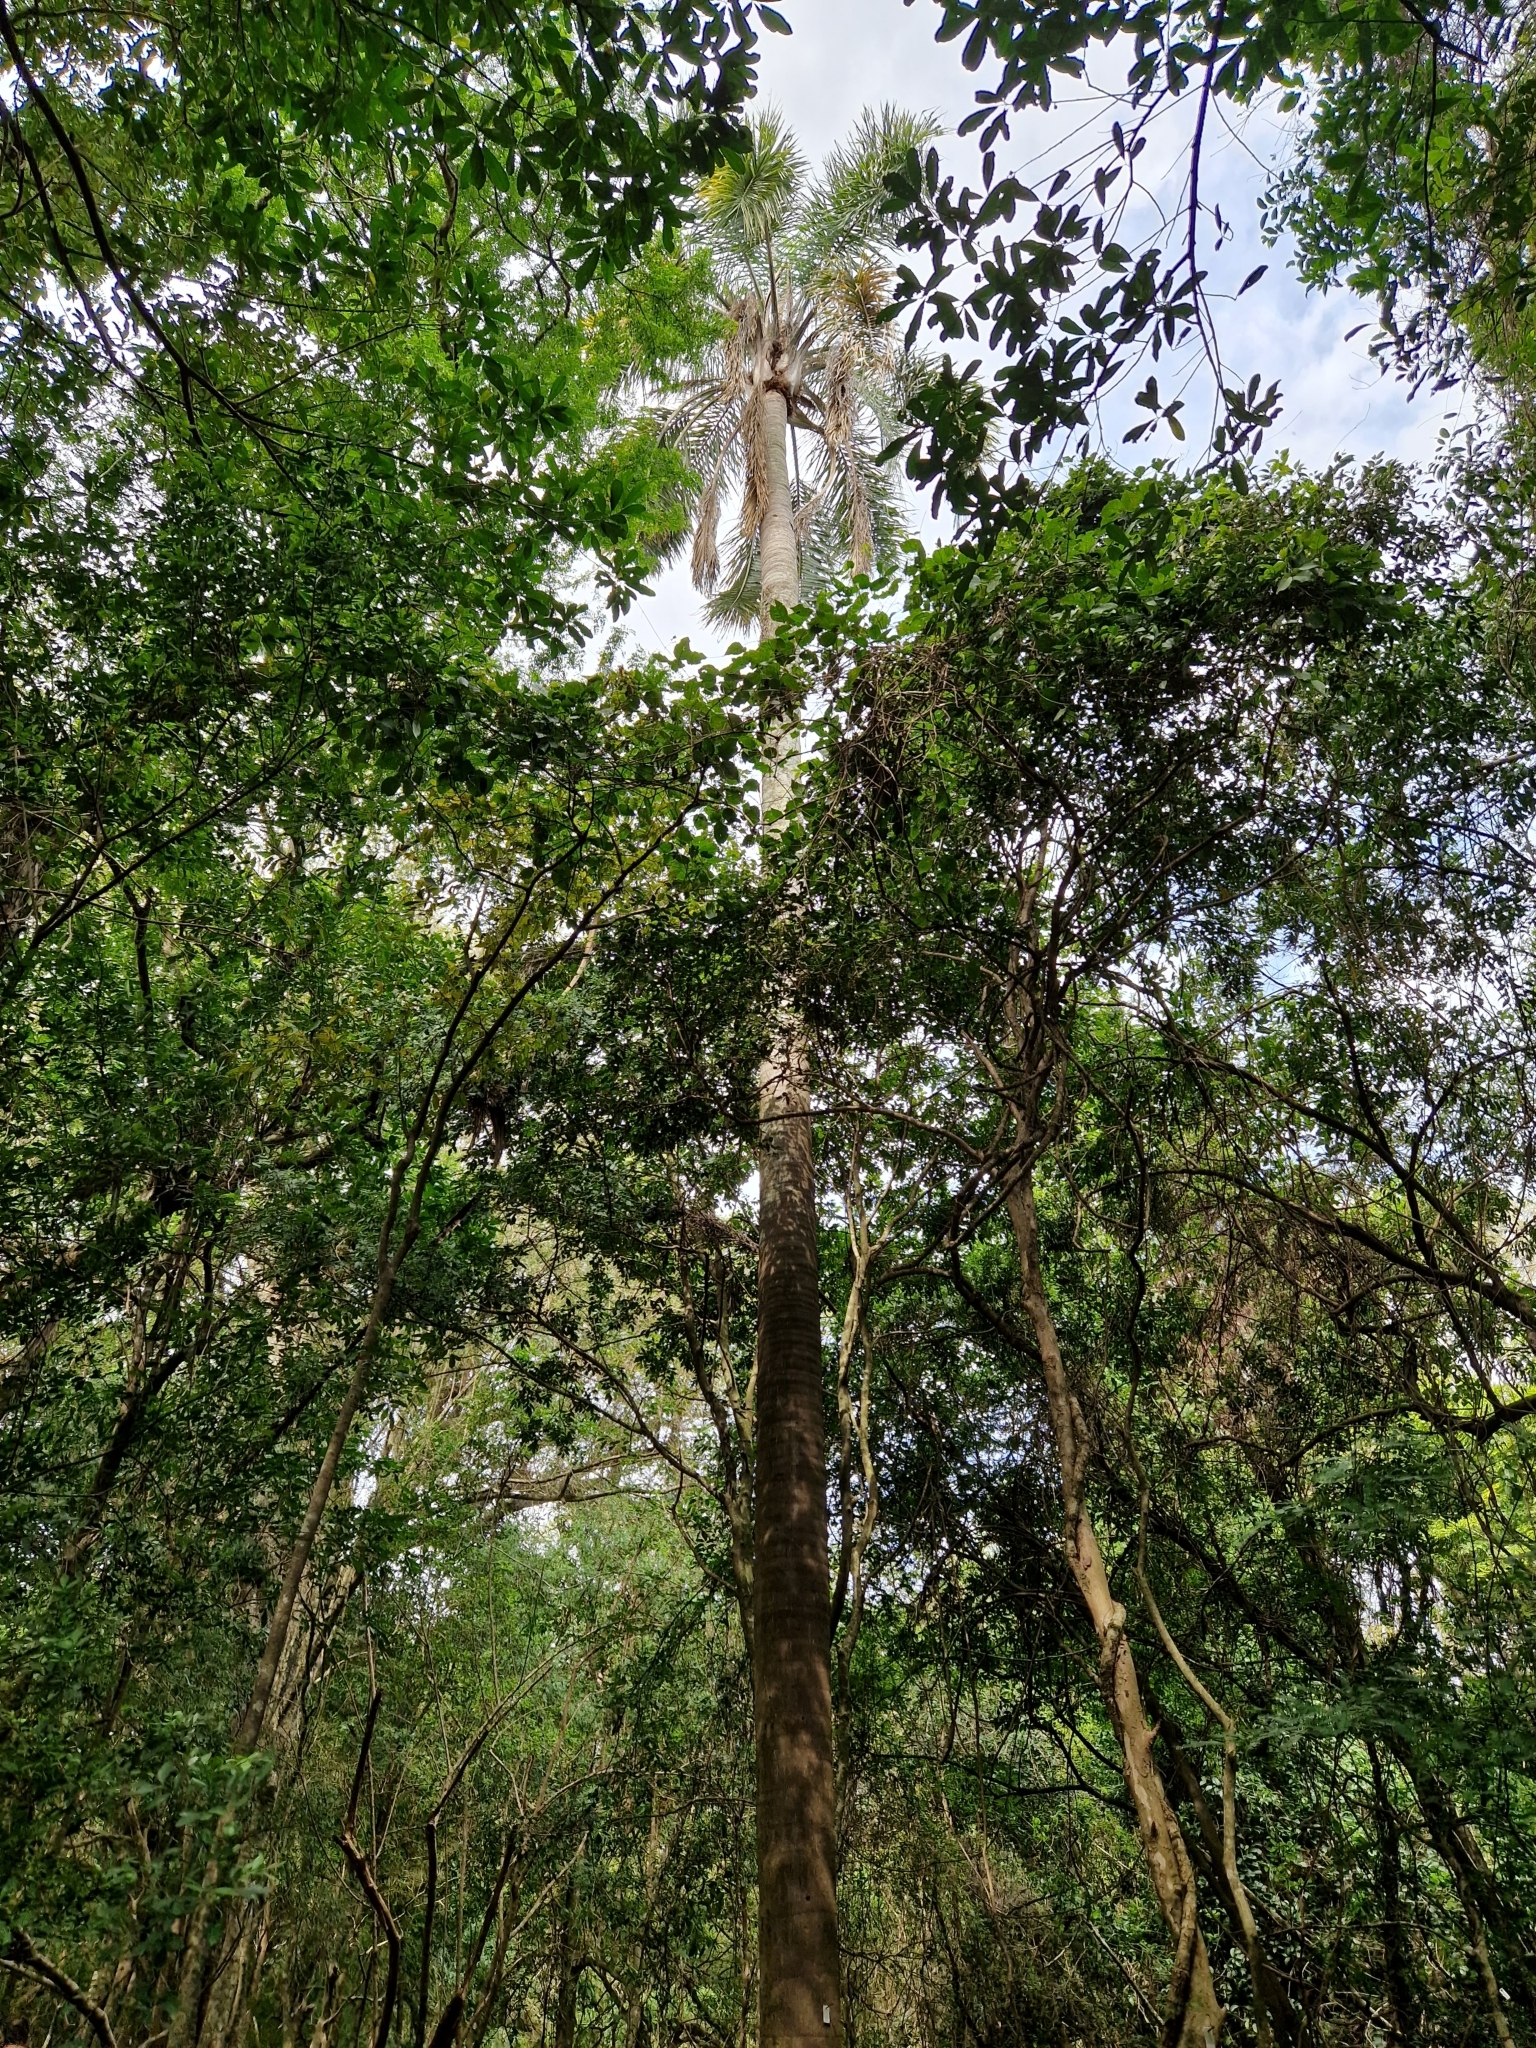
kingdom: Plantae
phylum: Tracheophyta
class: Liliopsida
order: Arecales
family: Arecaceae
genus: Syagrus
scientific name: Syagrus romanzoffiana
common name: Queen palm
